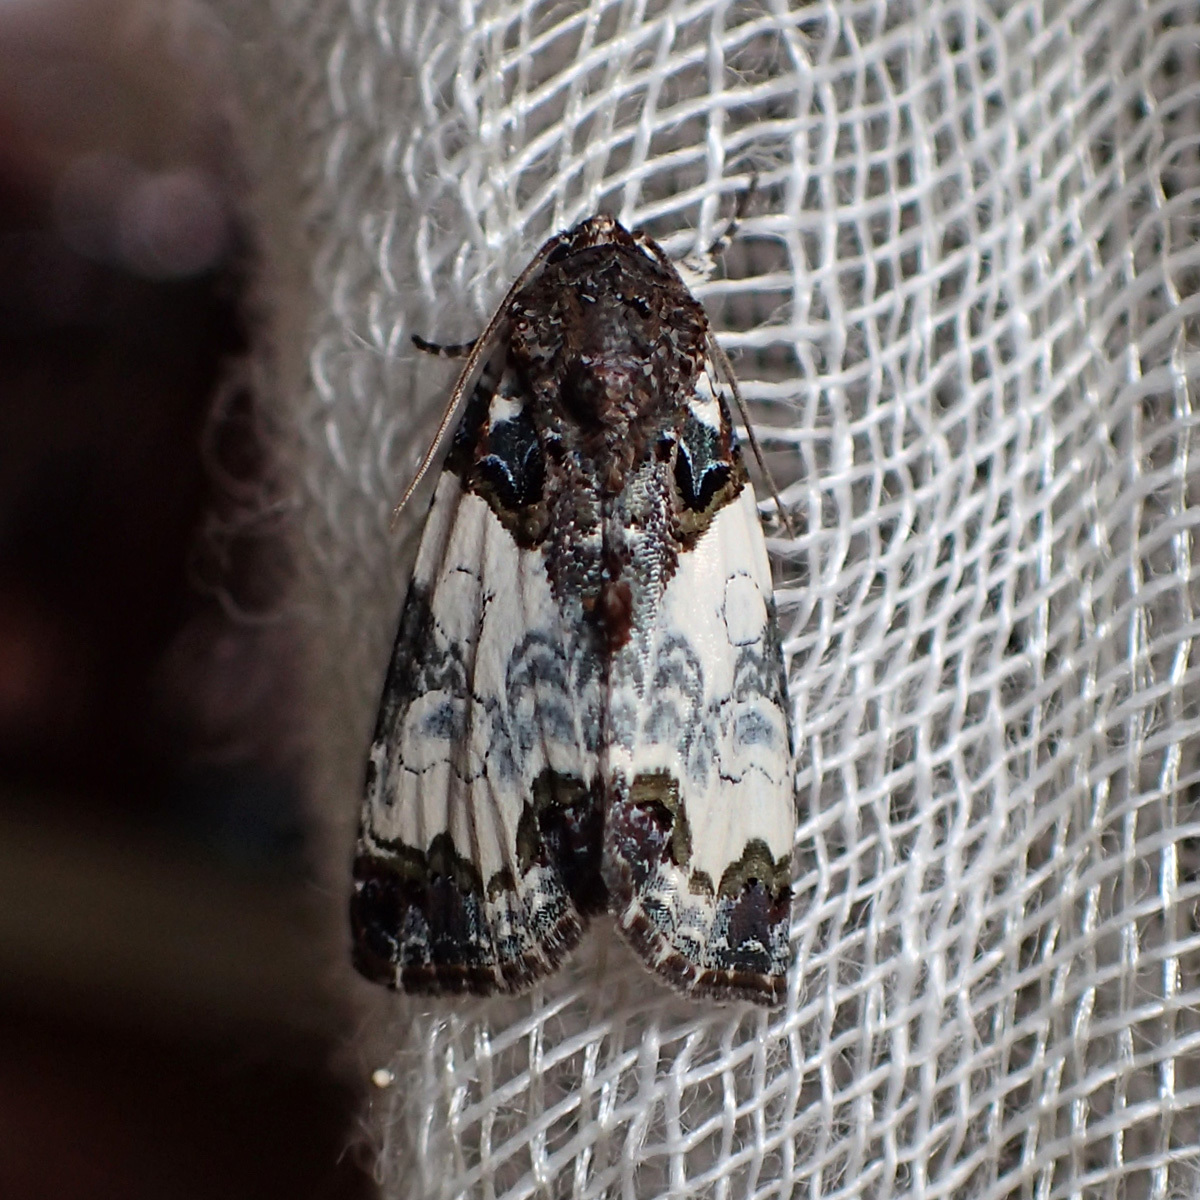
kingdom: Animalia
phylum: Arthropoda
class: Insecta
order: Lepidoptera
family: Noctuidae
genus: Cerma
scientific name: Cerma cerintha
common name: Tufted bird-dropping moth
